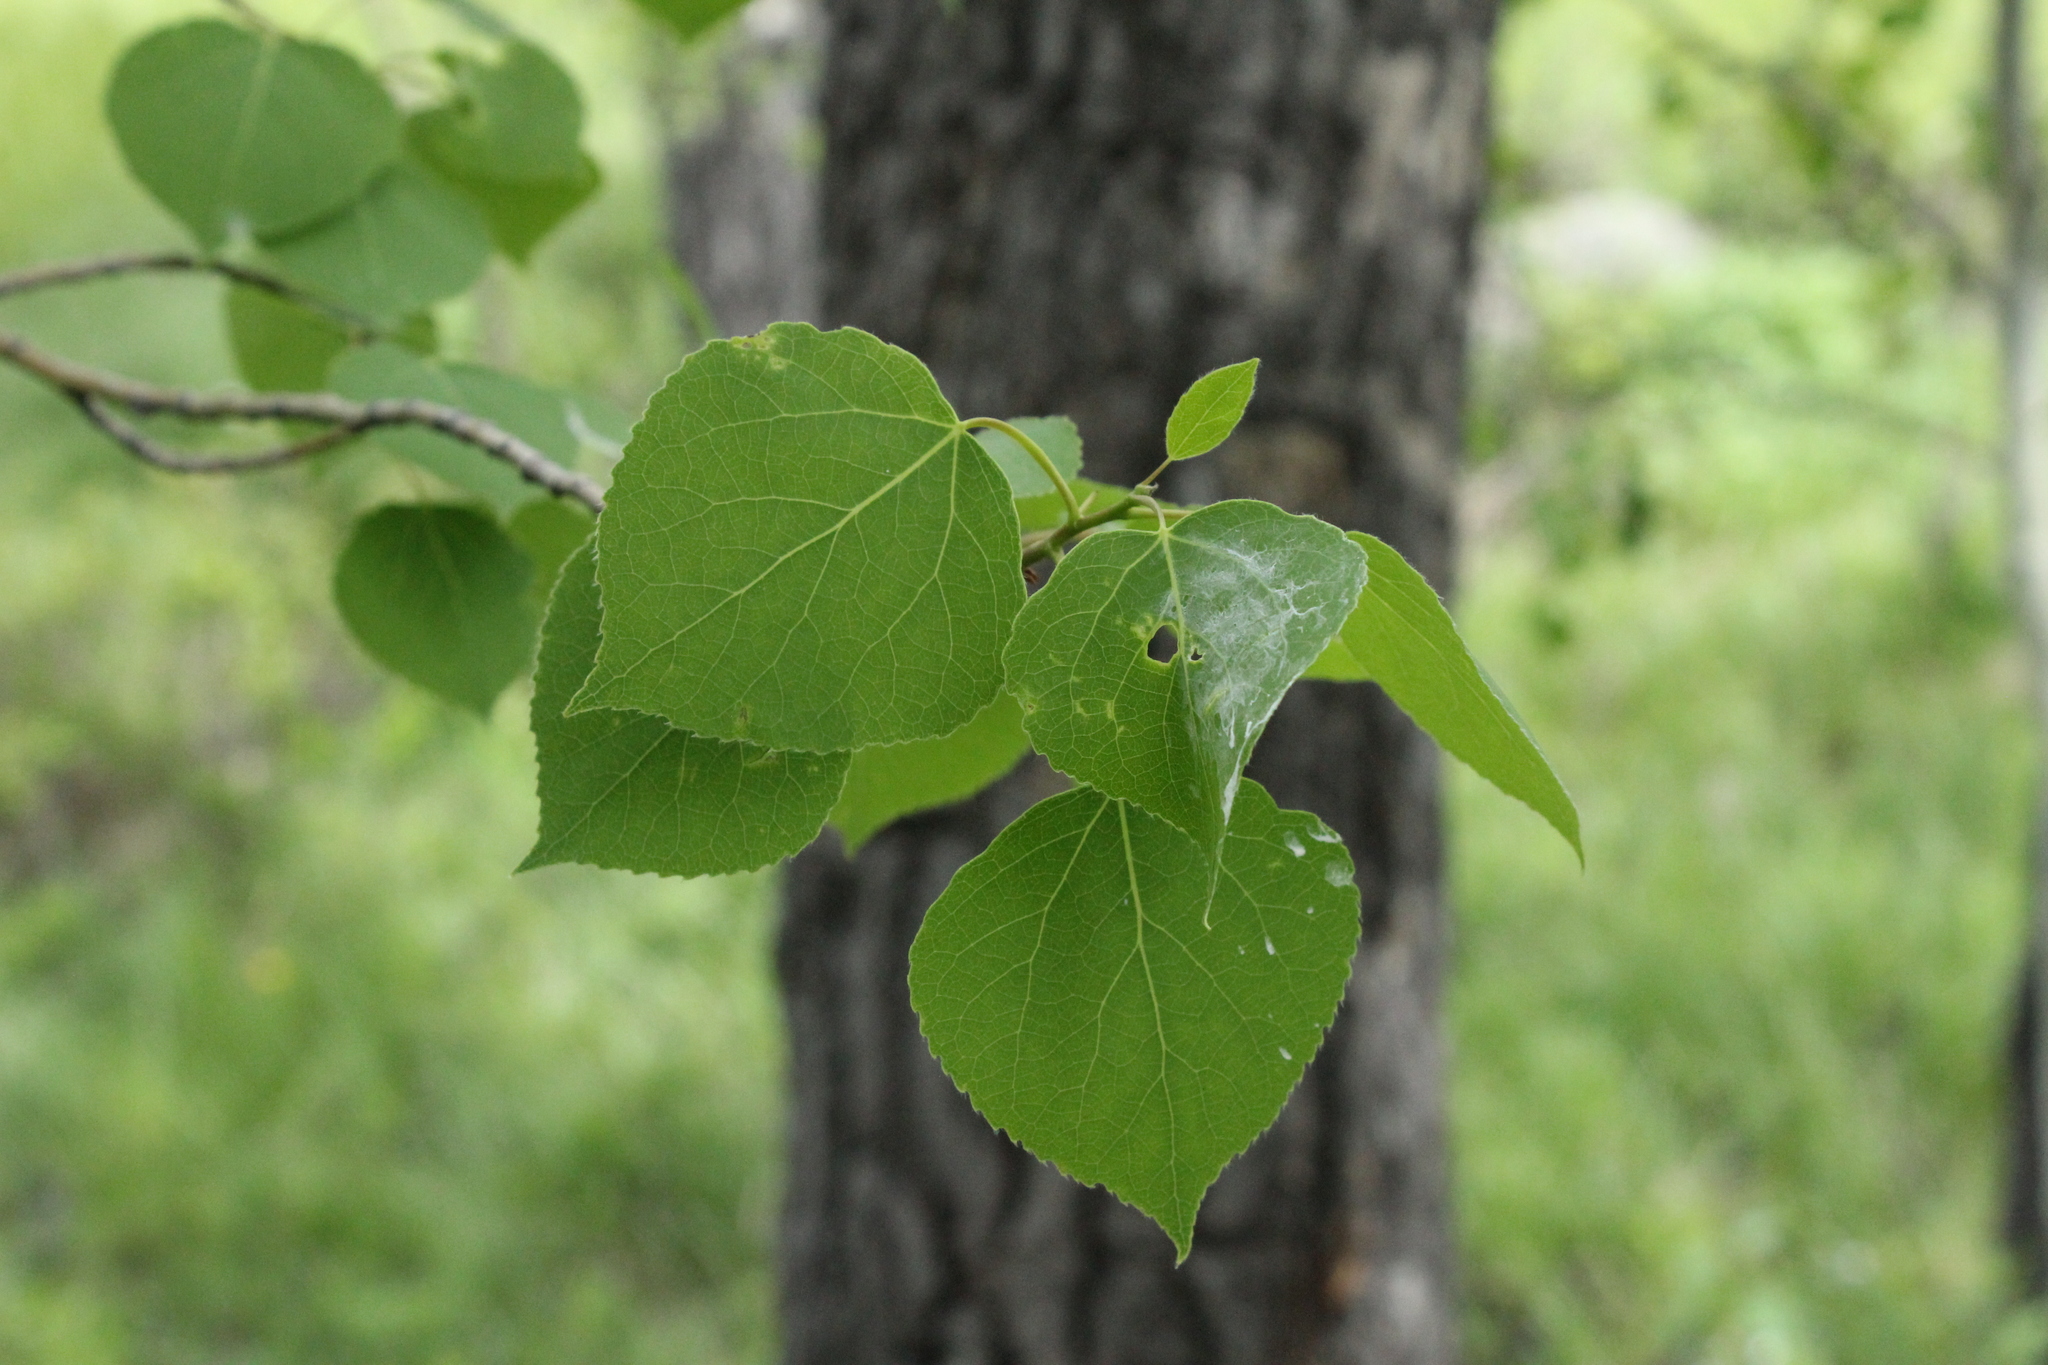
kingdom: Plantae
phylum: Tracheophyta
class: Magnoliopsida
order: Malpighiales
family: Salicaceae
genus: Populus
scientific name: Populus tremuloides
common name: Quaking aspen
